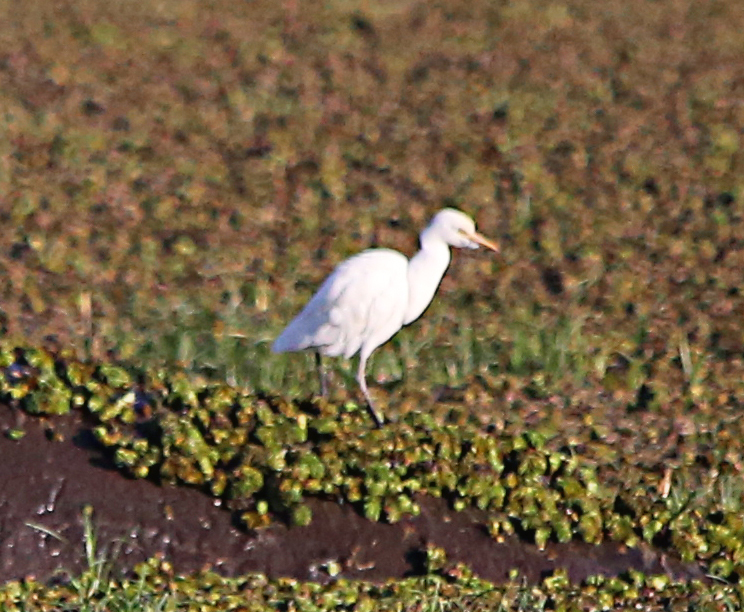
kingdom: Animalia
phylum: Chordata
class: Aves
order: Pelecaniformes
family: Ardeidae
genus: Bubulcus
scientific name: Bubulcus ibis
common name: Cattle egret
